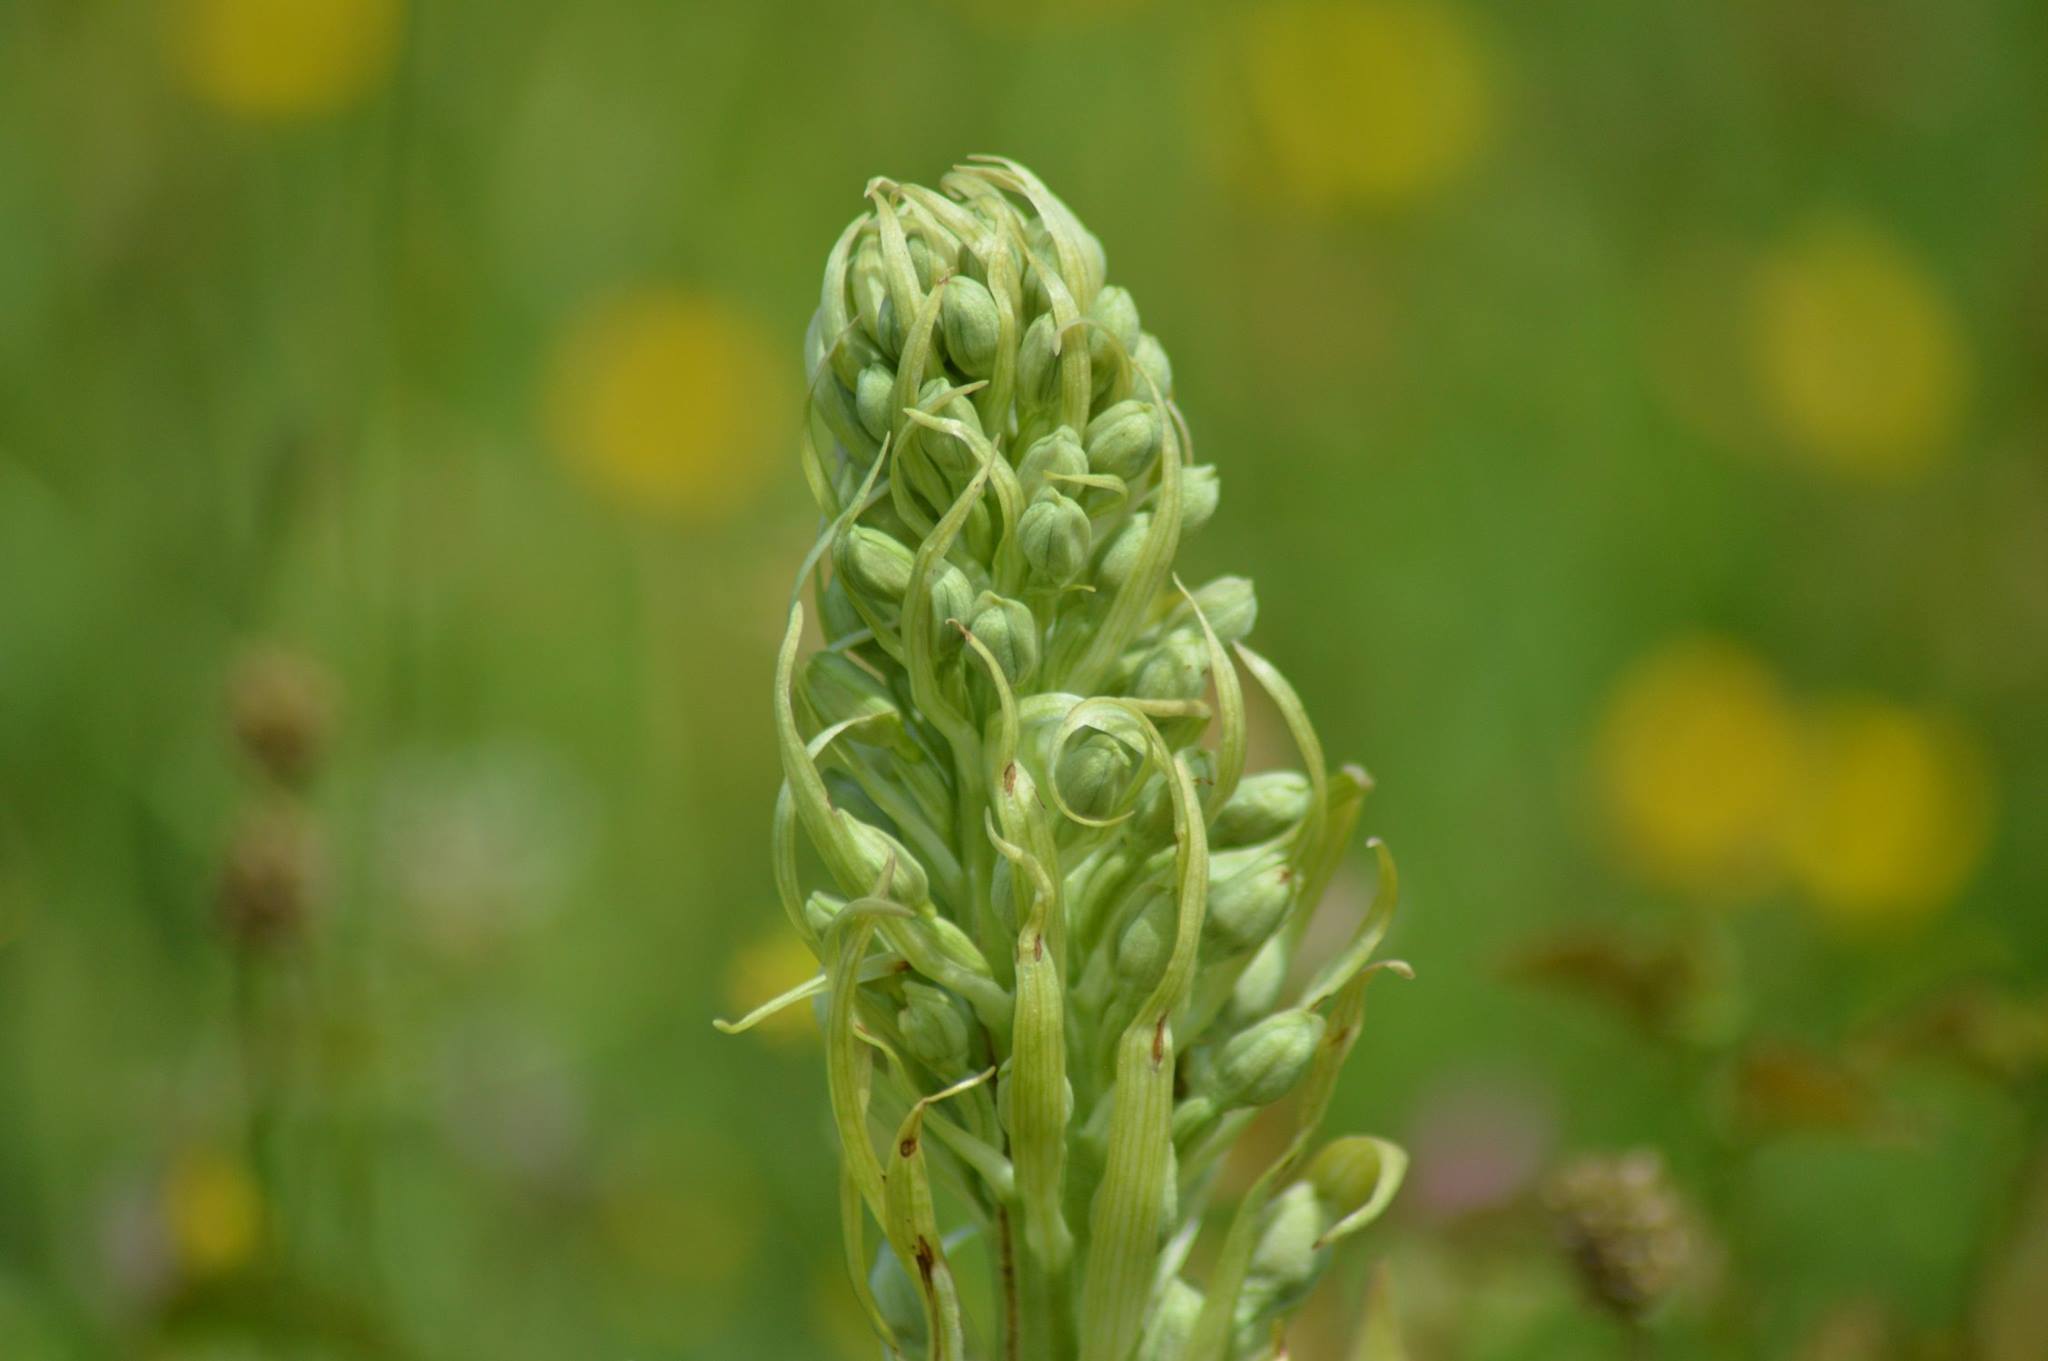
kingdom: Plantae
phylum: Tracheophyta
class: Liliopsida
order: Asparagales
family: Orchidaceae
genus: Himantoglossum
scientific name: Himantoglossum hircinum
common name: Lizard orchid
